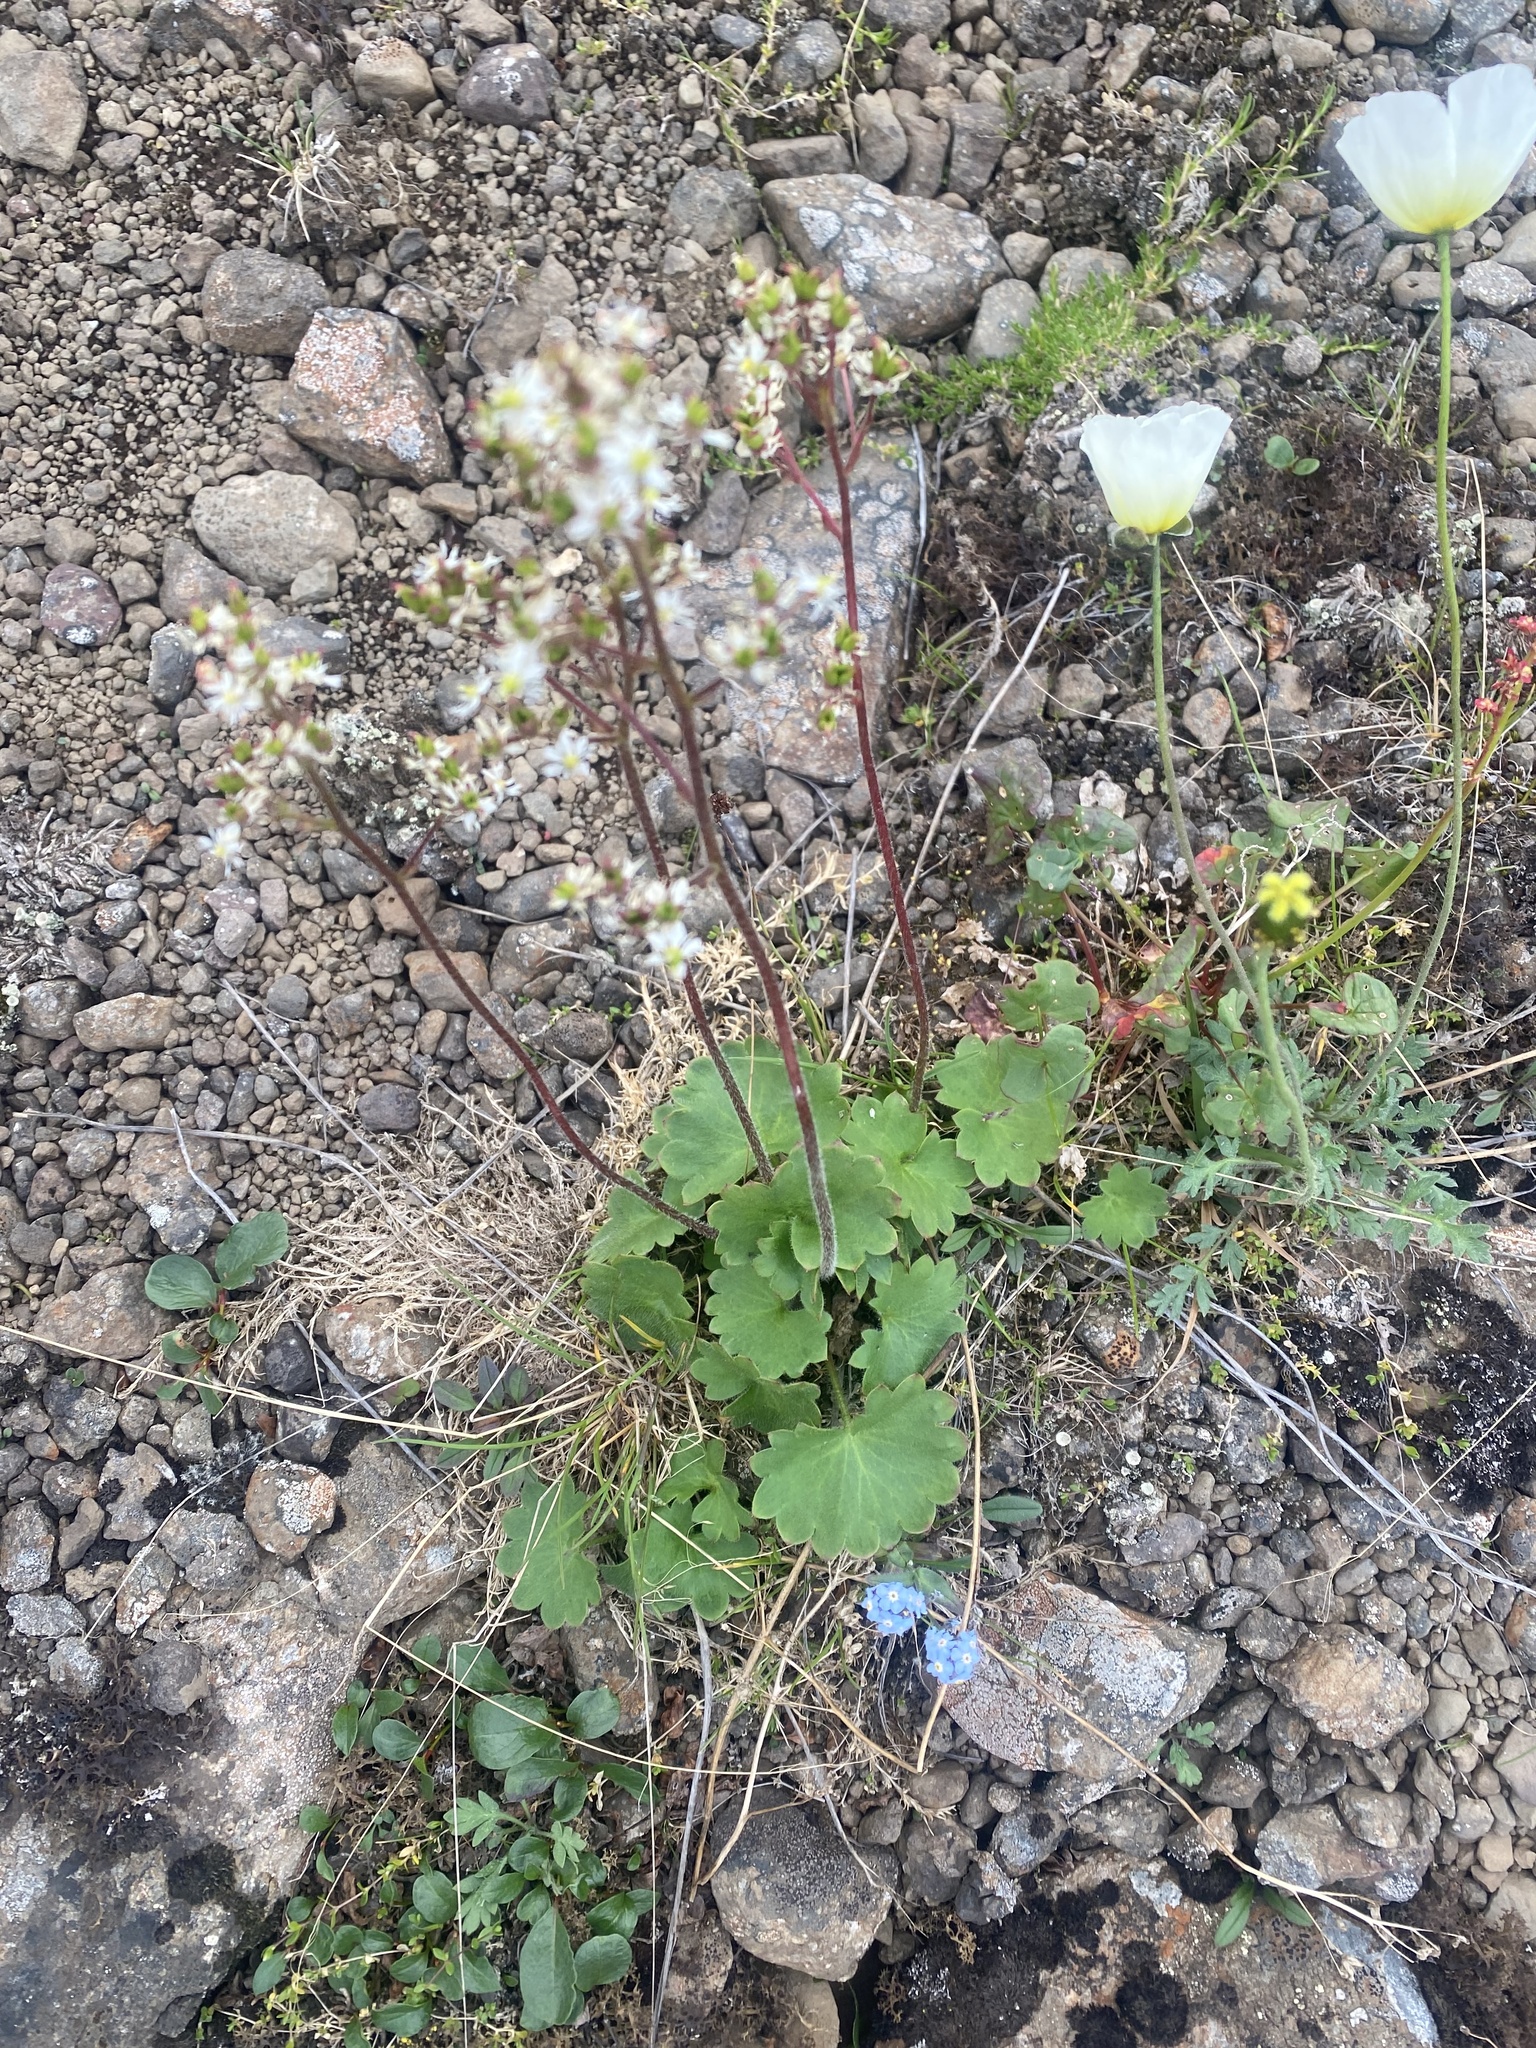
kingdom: Plantae
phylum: Tracheophyta
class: Magnoliopsida
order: Saxifragales
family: Saxifragaceae
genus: Micranthes
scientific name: Micranthes nelsoniana
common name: Nelson's saxifrage
